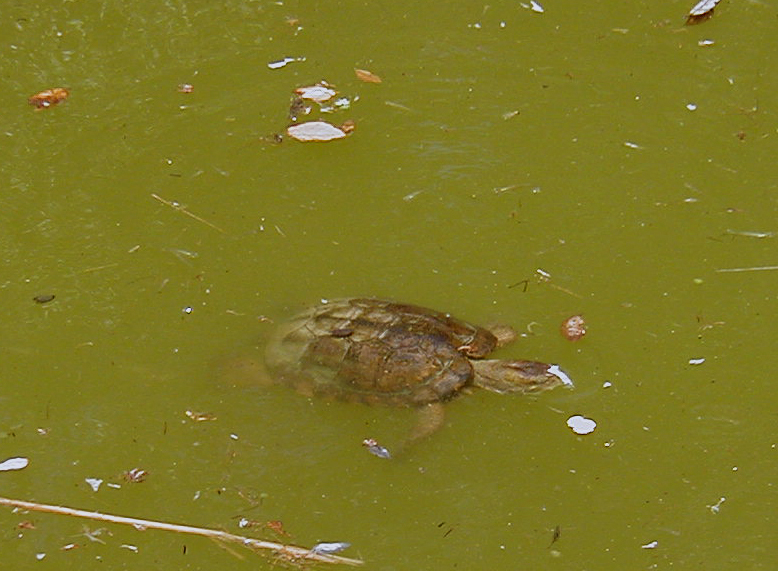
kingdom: Animalia
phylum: Chordata
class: Testudines
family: Emydidae
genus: Actinemys
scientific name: Actinemys marmorata
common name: Western pond turtle
